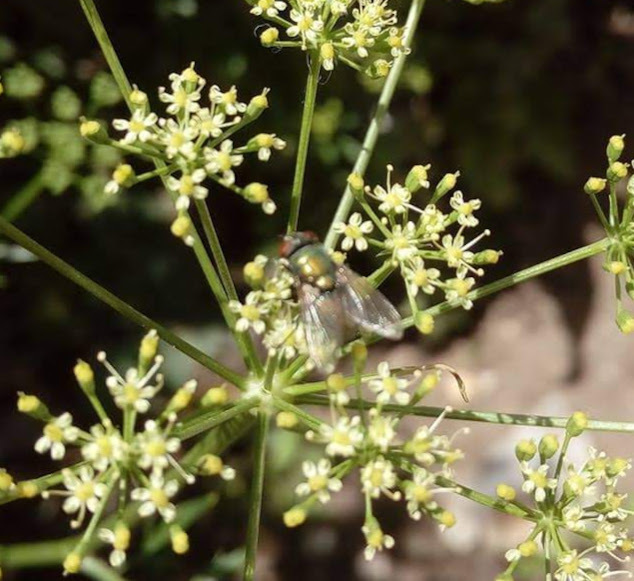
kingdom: Animalia
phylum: Arthropoda
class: Insecta
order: Diptera
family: Calliphoridae
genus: Lucilia
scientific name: Lucilia
